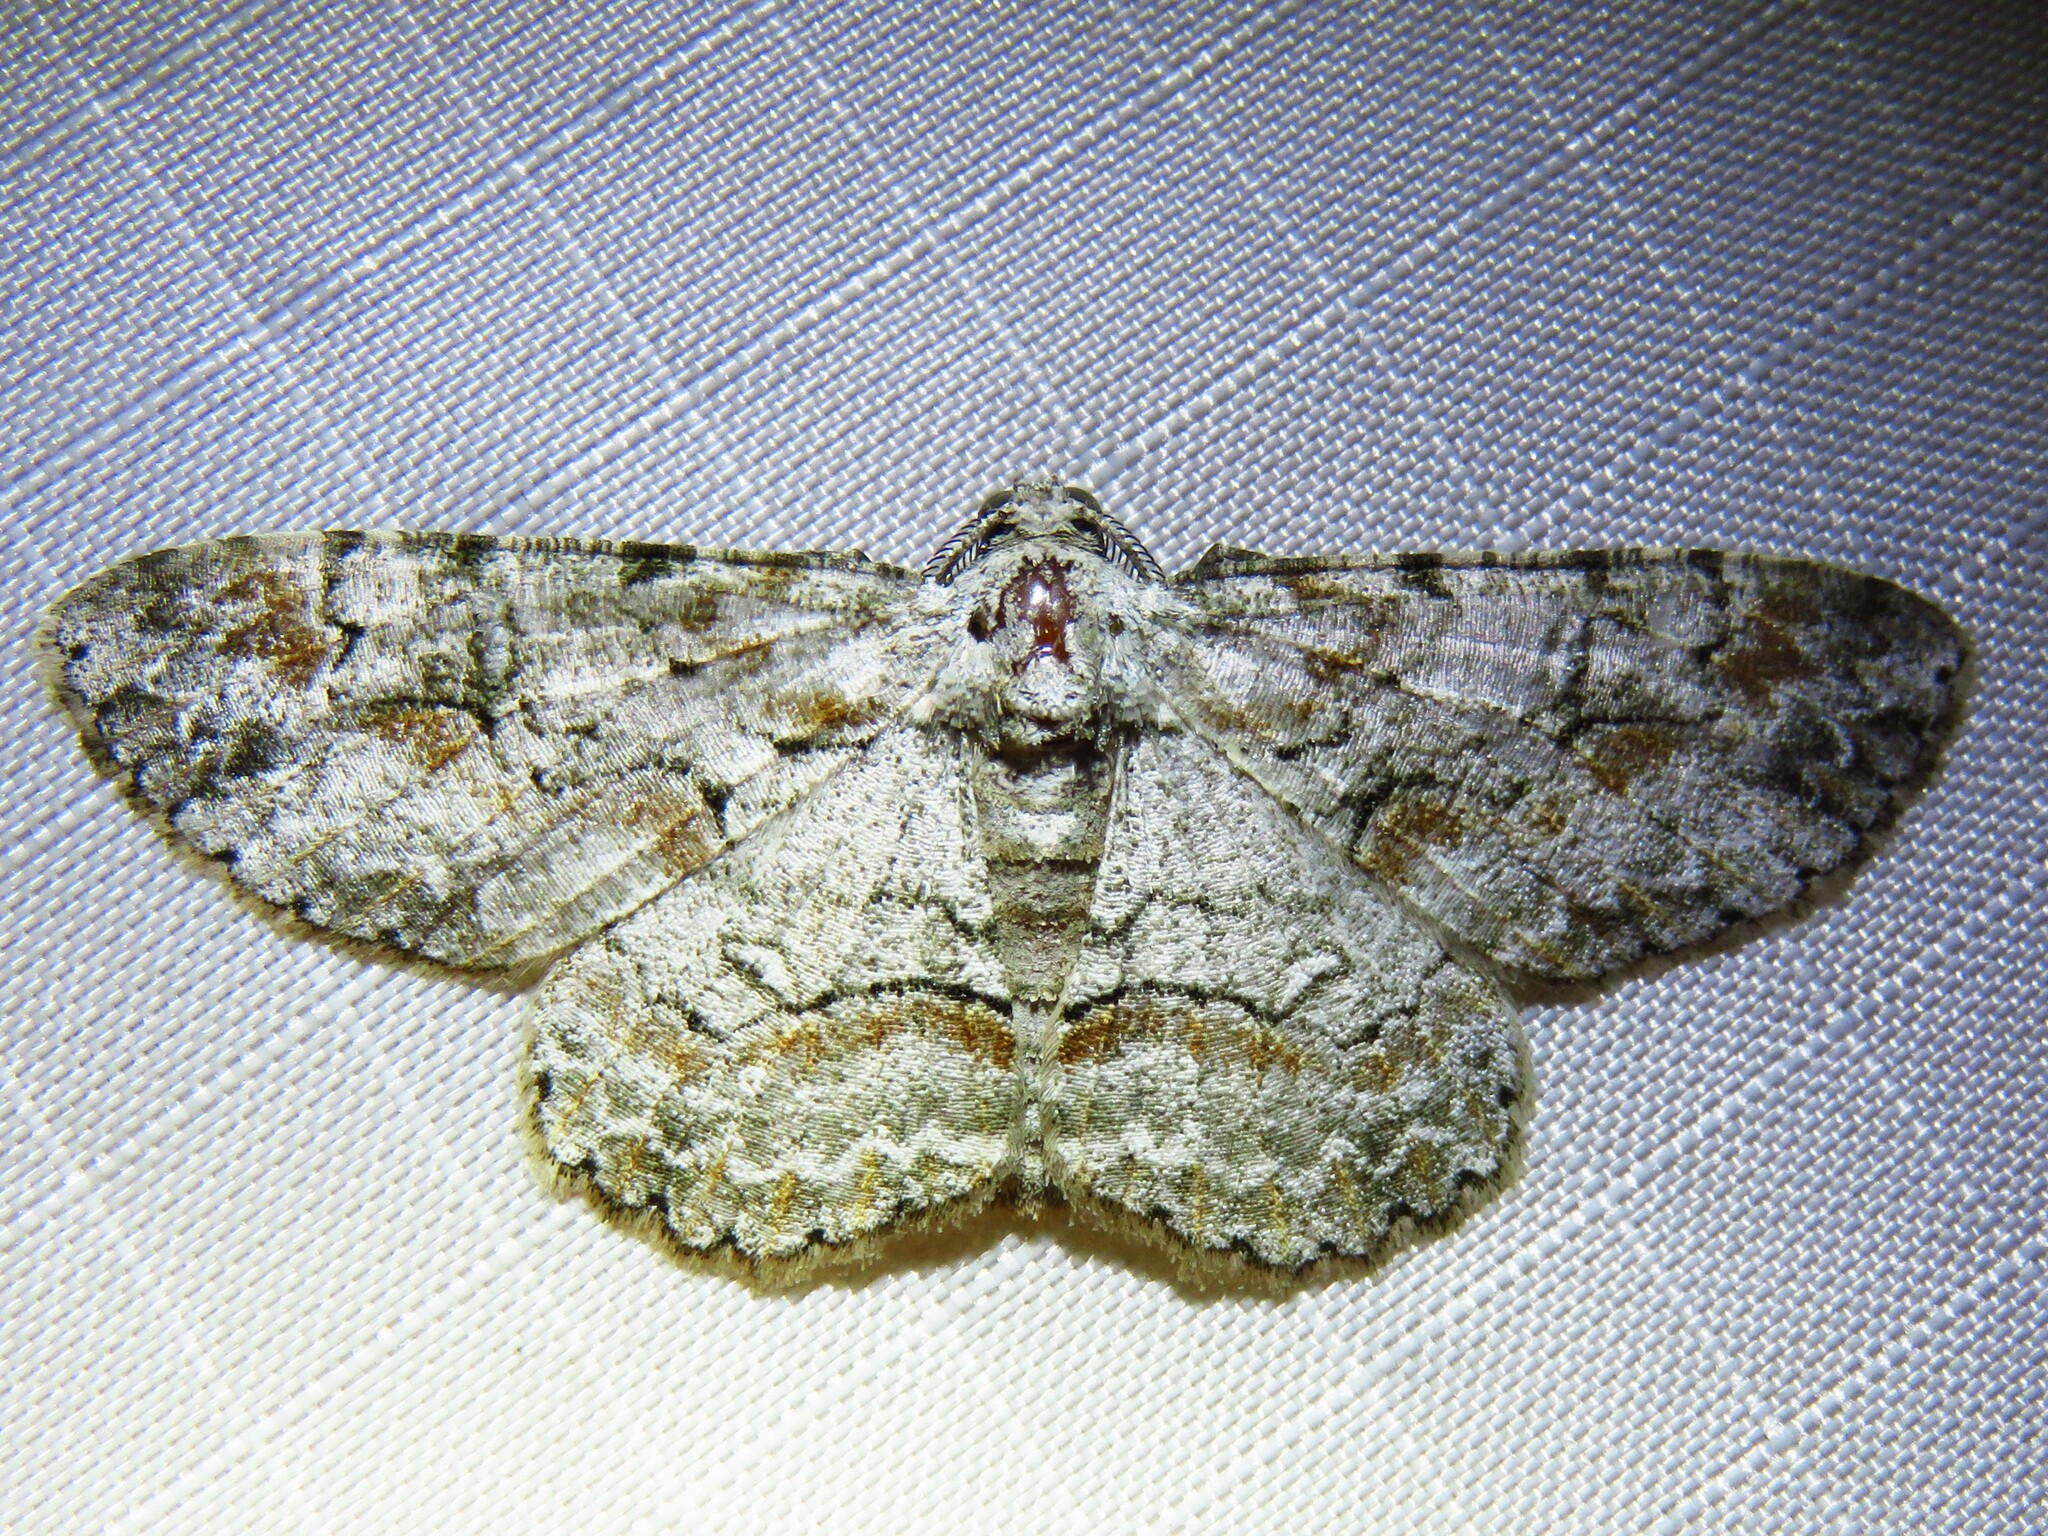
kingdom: Animalia
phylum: Arthropoda
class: Insecta
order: Lepidoptera
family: Geometridae
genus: Iridopsis
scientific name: Iridopsis defectaria
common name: Brown-shaded gray
